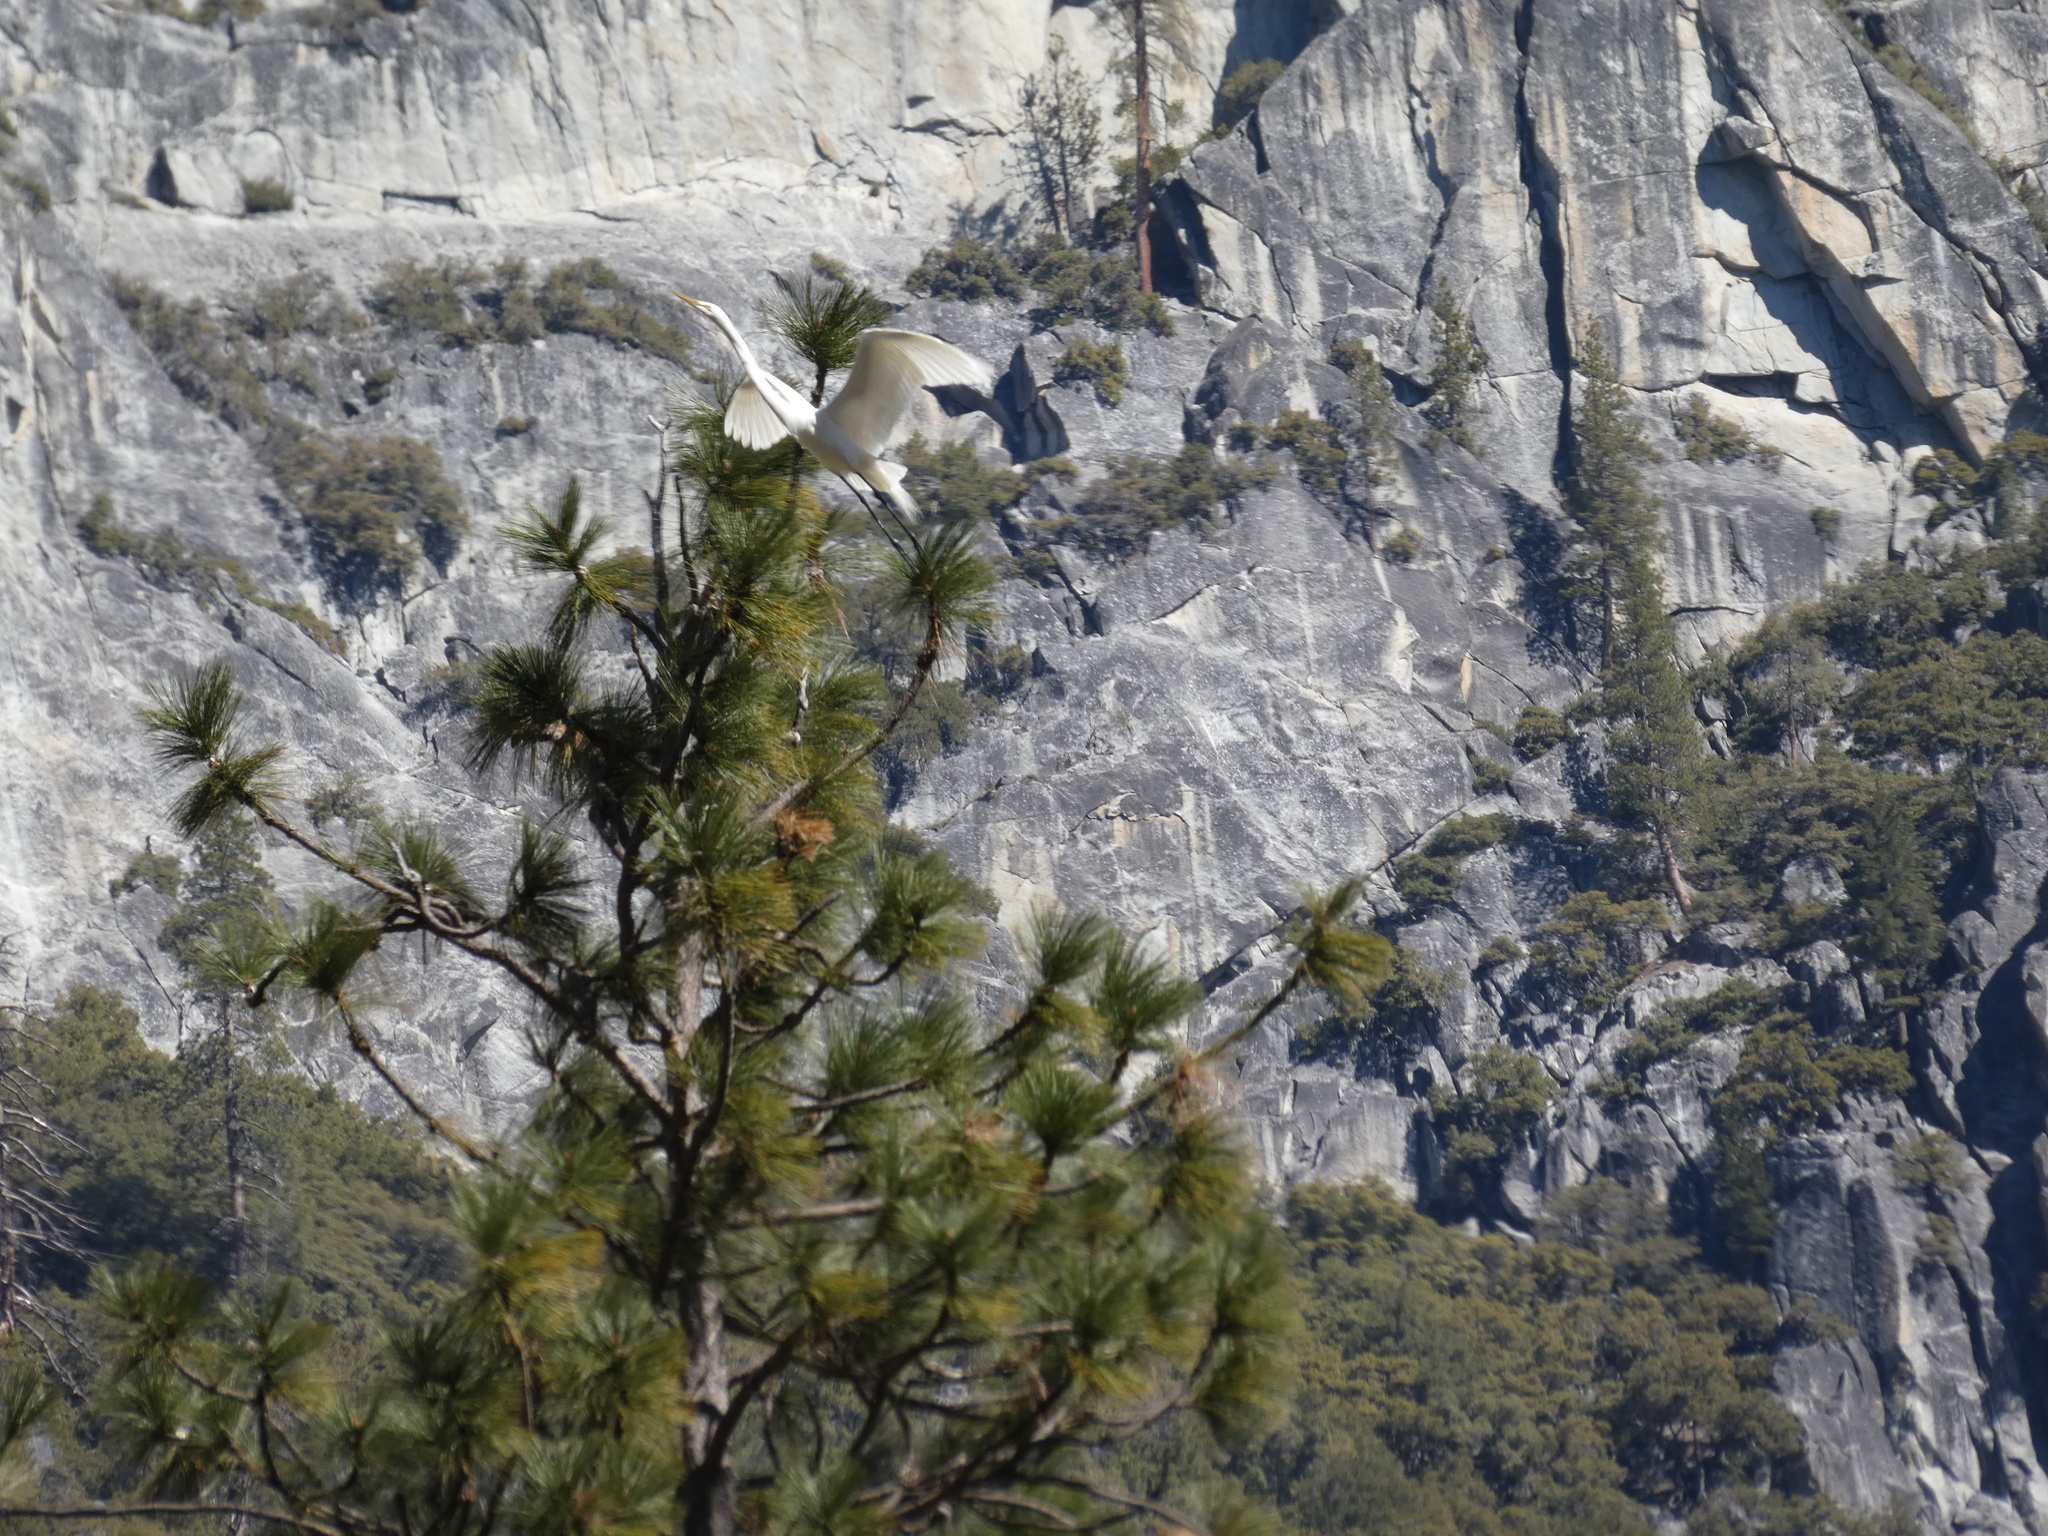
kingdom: Animalia
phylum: Chordata
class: Aves
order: Pelecaniformes
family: Ardeidae
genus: Ardea
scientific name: Ardea alba
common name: Great egret
